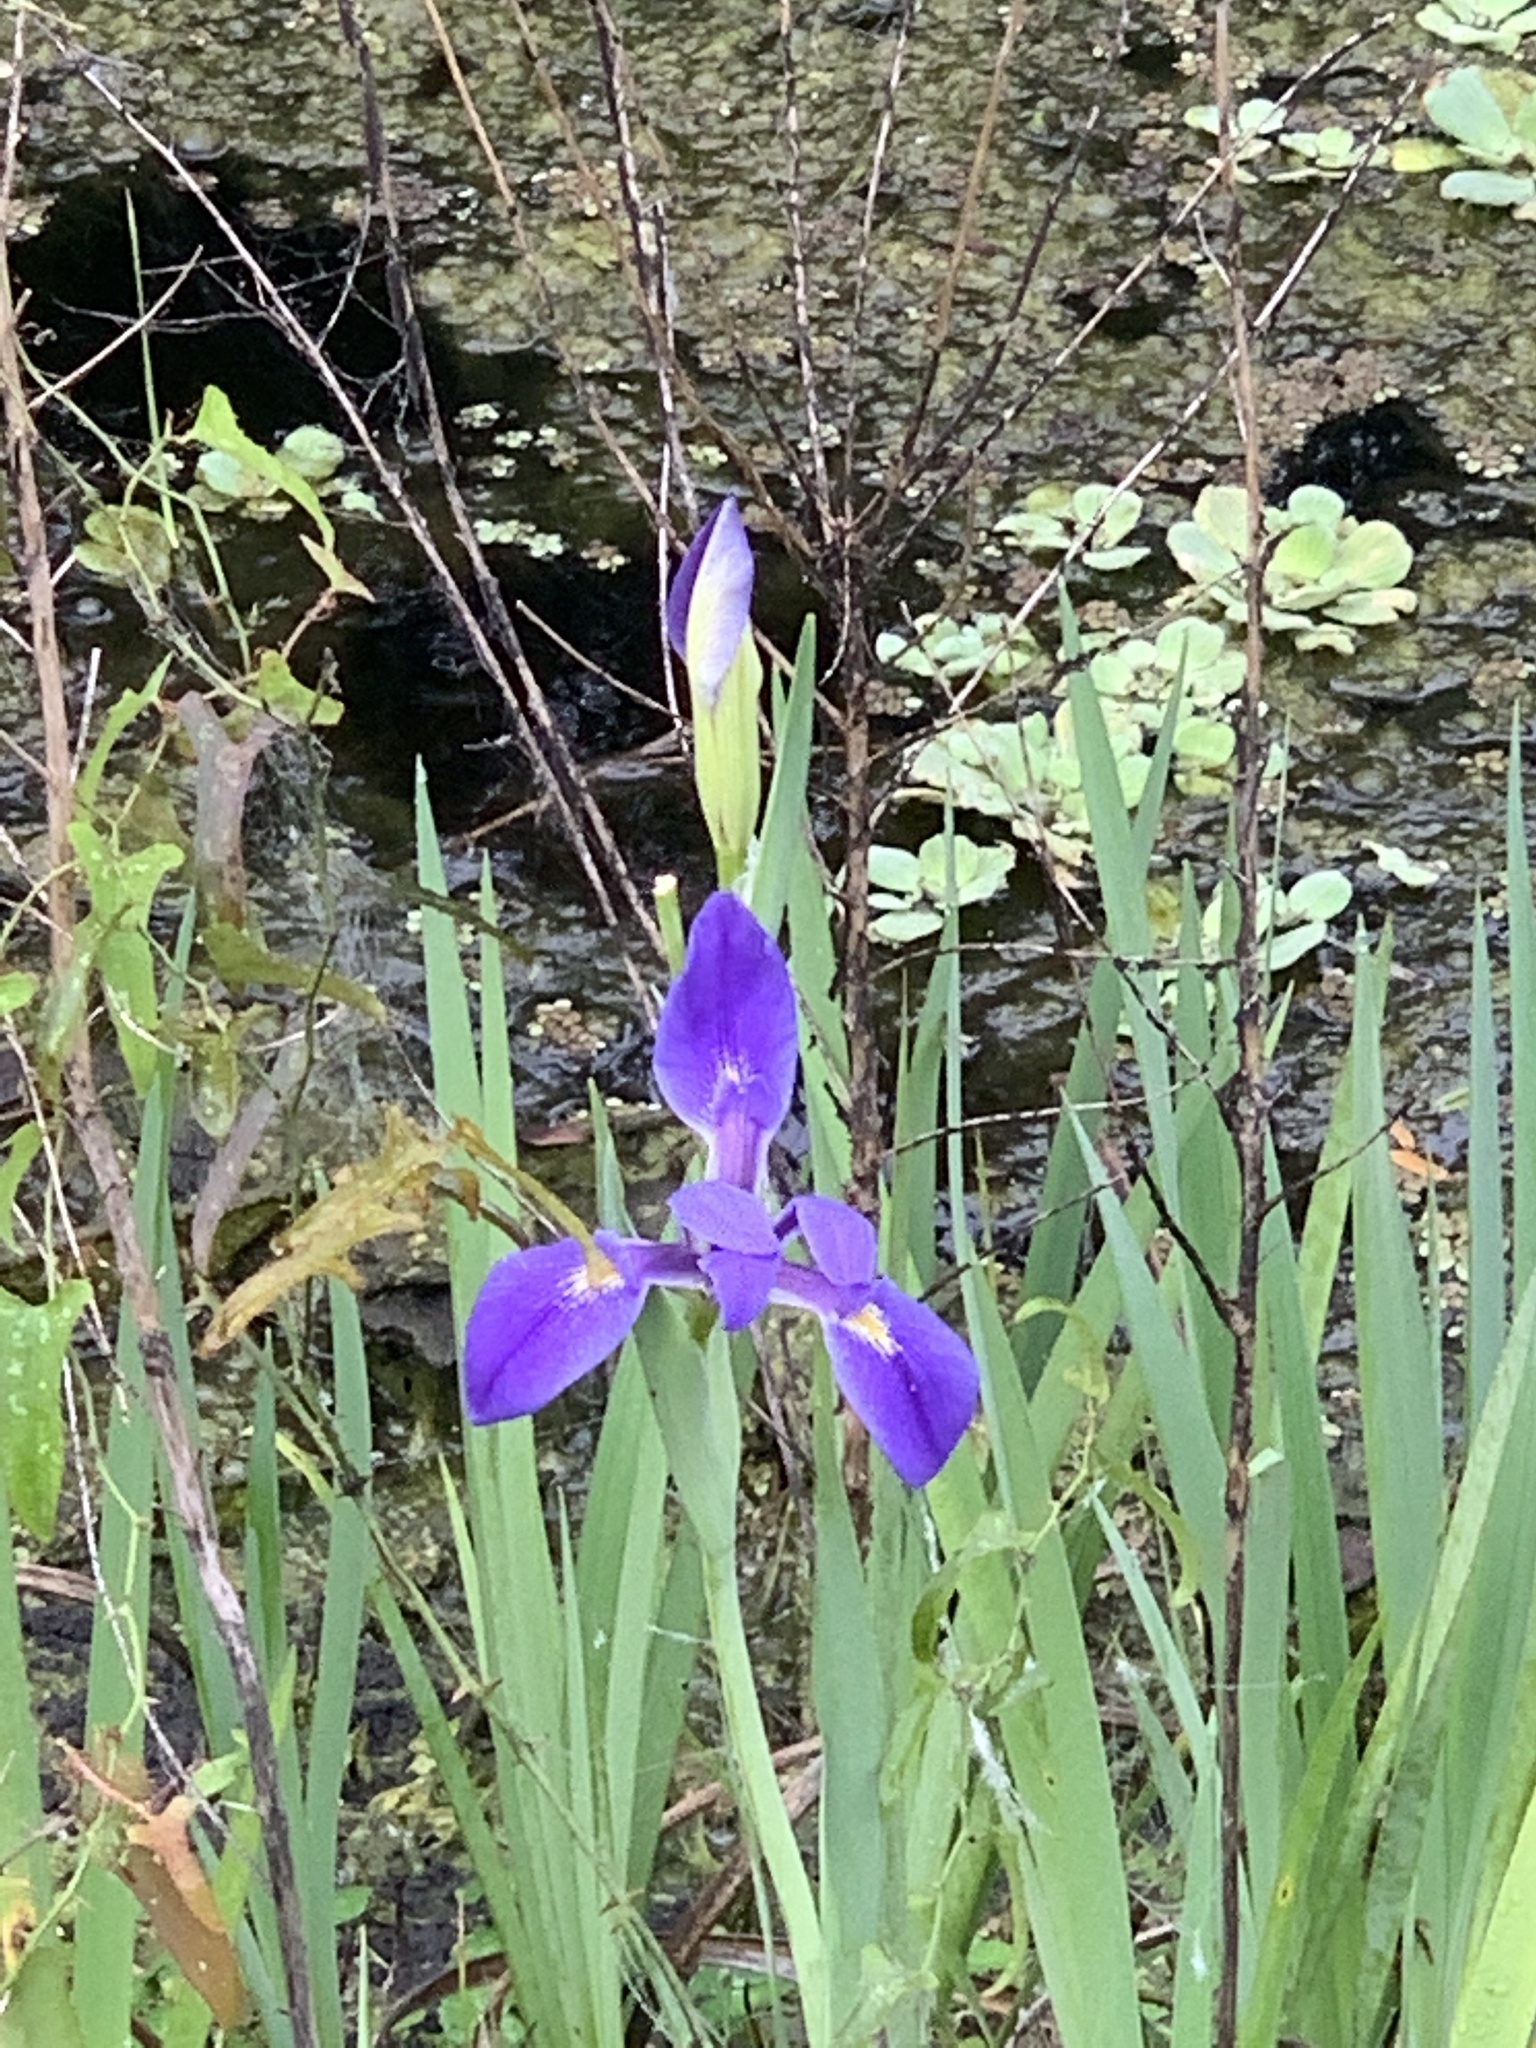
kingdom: Plantae
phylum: Tracheophyta
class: Liliopsida
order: Asparagales
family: Iridaceae
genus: Iris
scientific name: Iris savannarum
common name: Prairie iris
